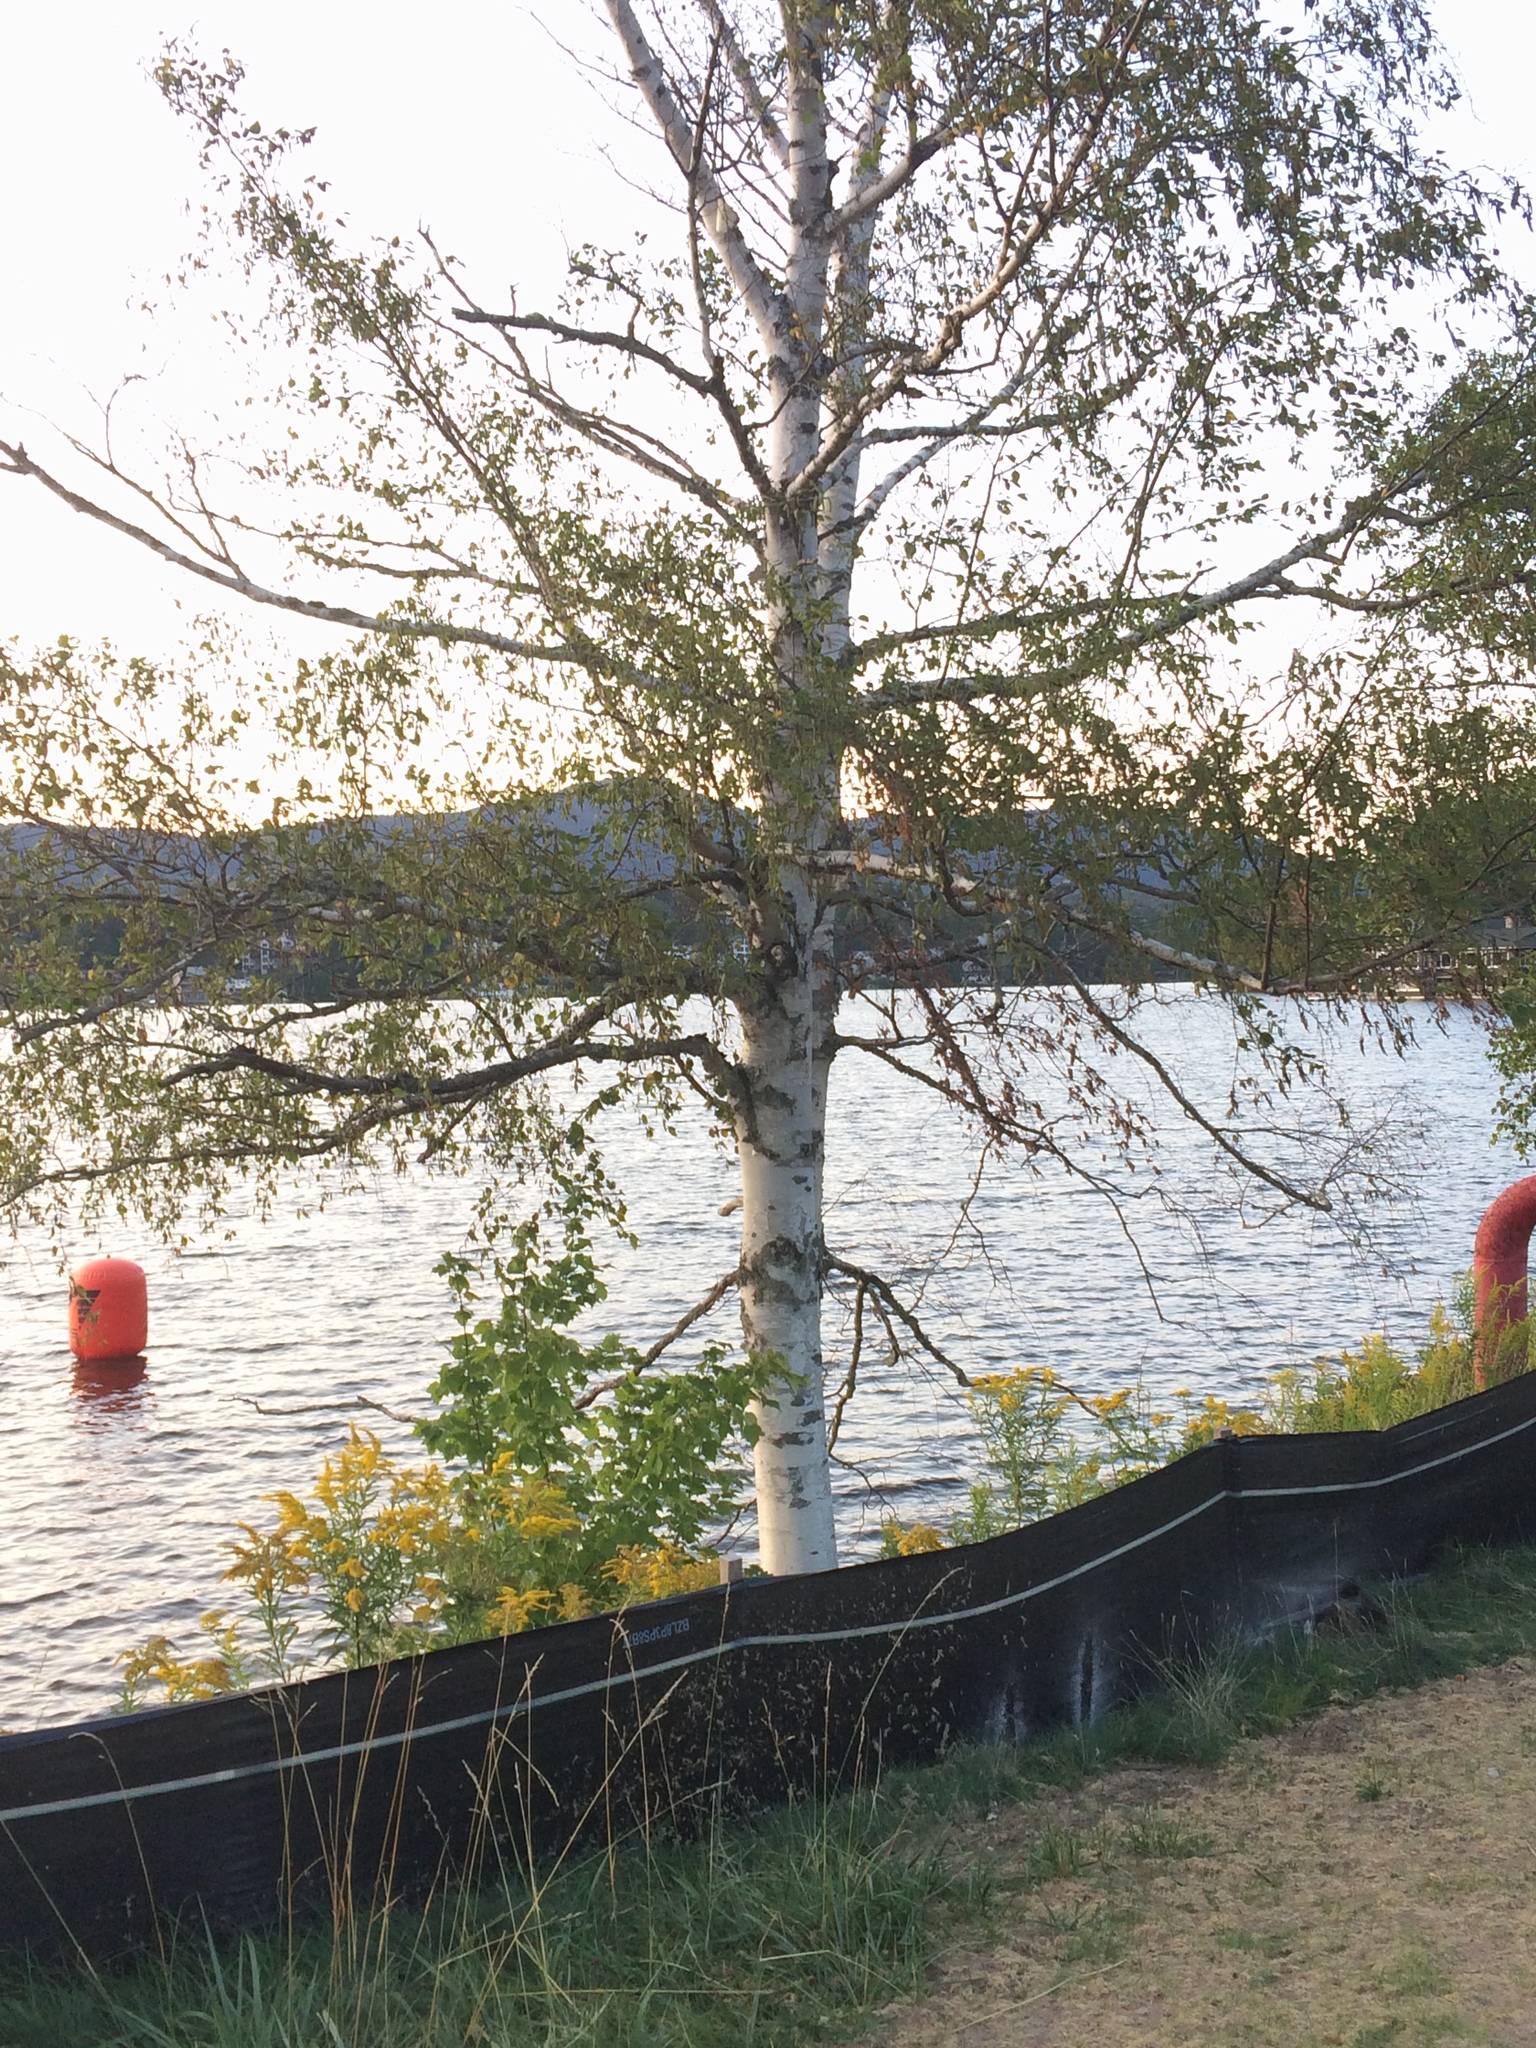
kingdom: Plantae
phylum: Tracheophyta
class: Magnoliopsida
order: Fagales
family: Betulaceae
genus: Betula
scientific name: Betula papyrifera
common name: Paper birch
